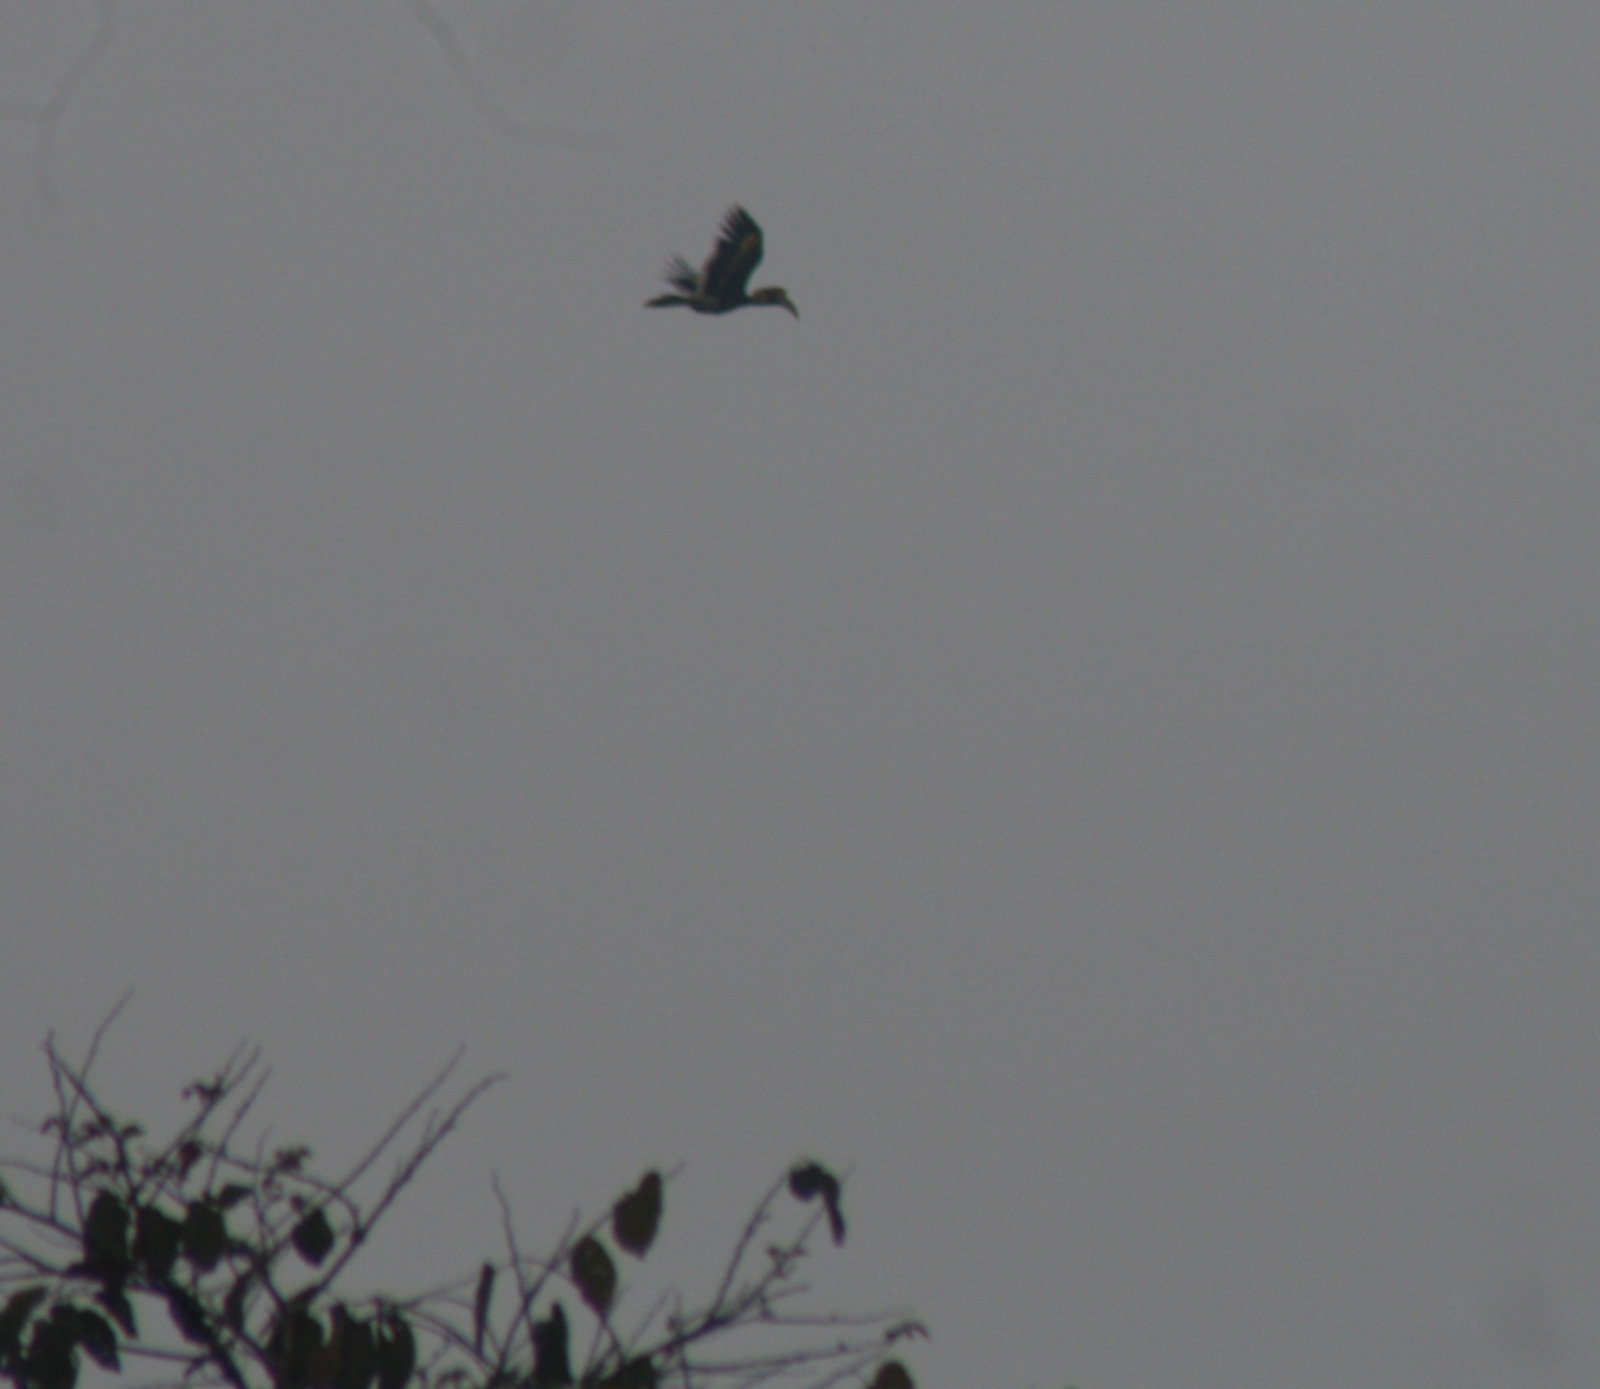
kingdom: Animalia
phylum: Chordata
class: Aves
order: Bucerotiformes
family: Bucerotidae
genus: Buceros
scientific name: Buceros bicornis
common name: Great hornbill
